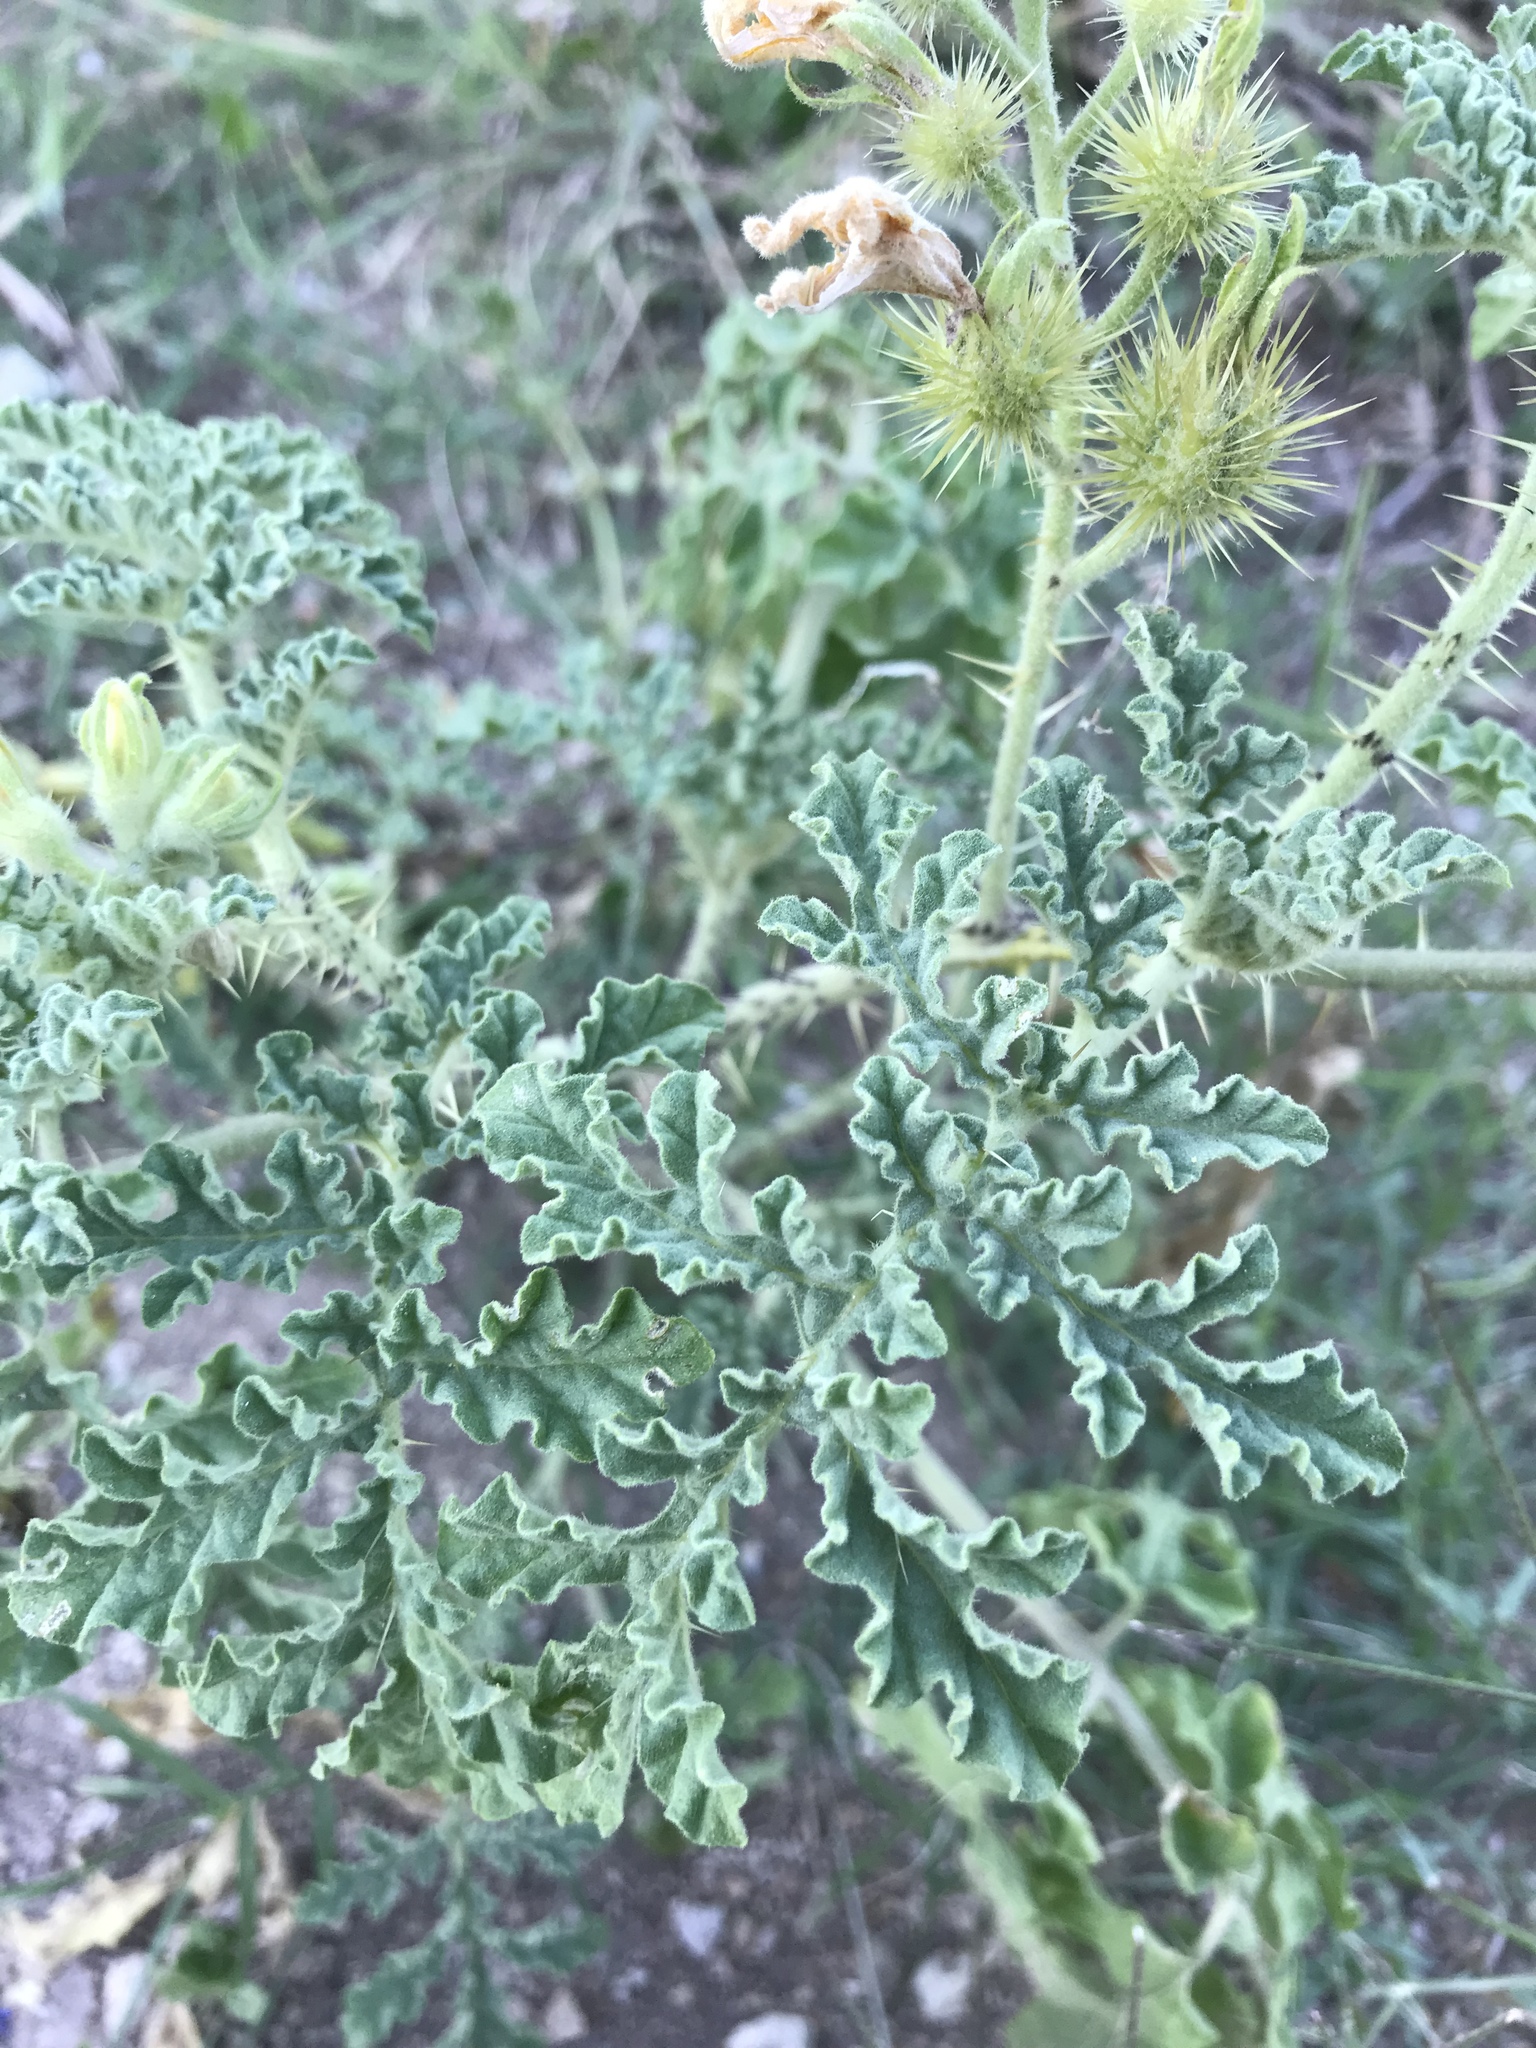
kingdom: Plantae
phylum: Tracheophyta
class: Magnoliopsida
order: Solanales
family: Solanaceae
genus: Solanum
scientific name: Solanum angustifolium
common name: Buffalobur nightshade
